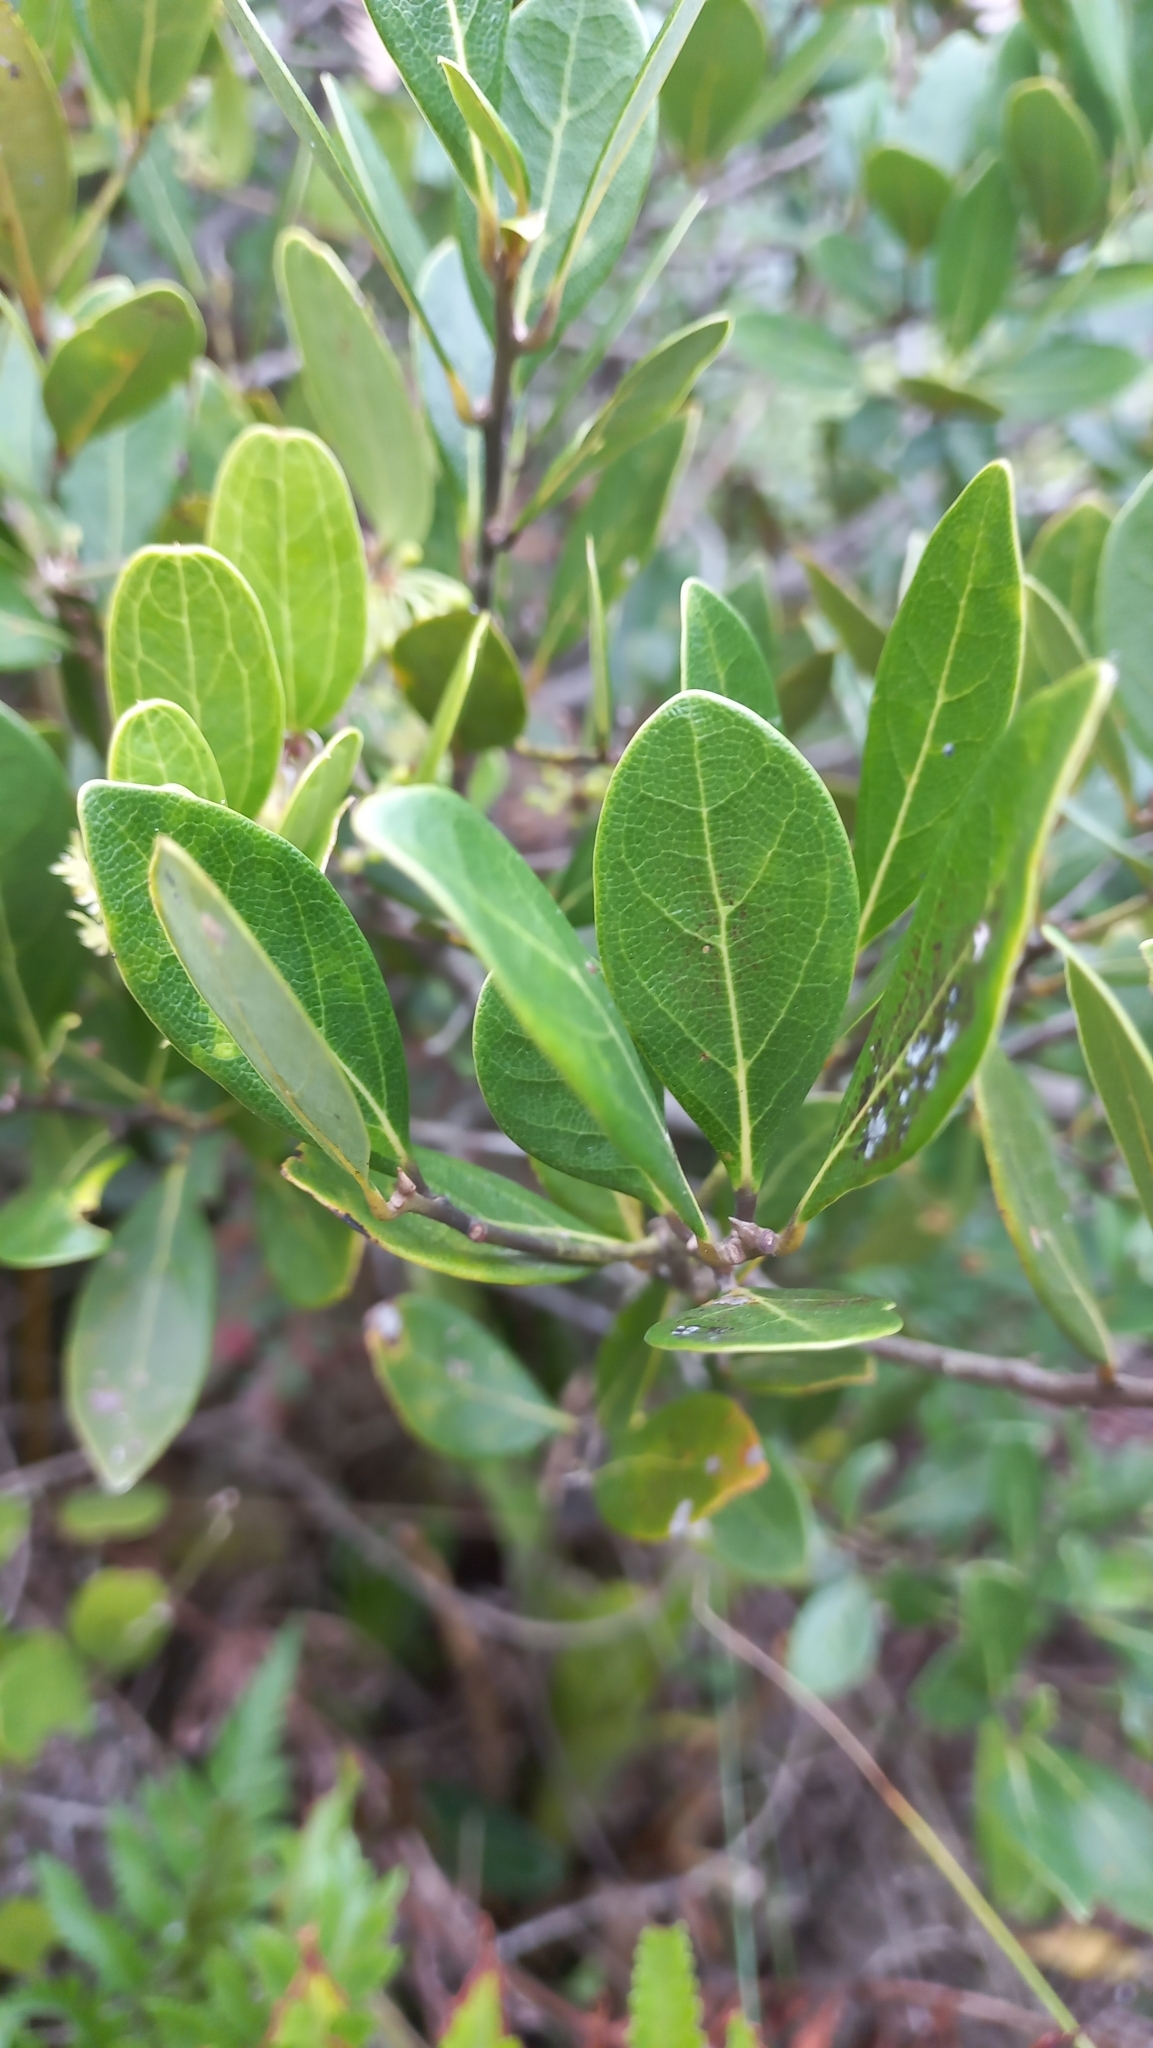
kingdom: Plantae
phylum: Tracheophyta
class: Magnoliopsida
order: Laurales
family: Lauraceae
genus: Mespilodaphne
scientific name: Mespilodaphne pulchella
